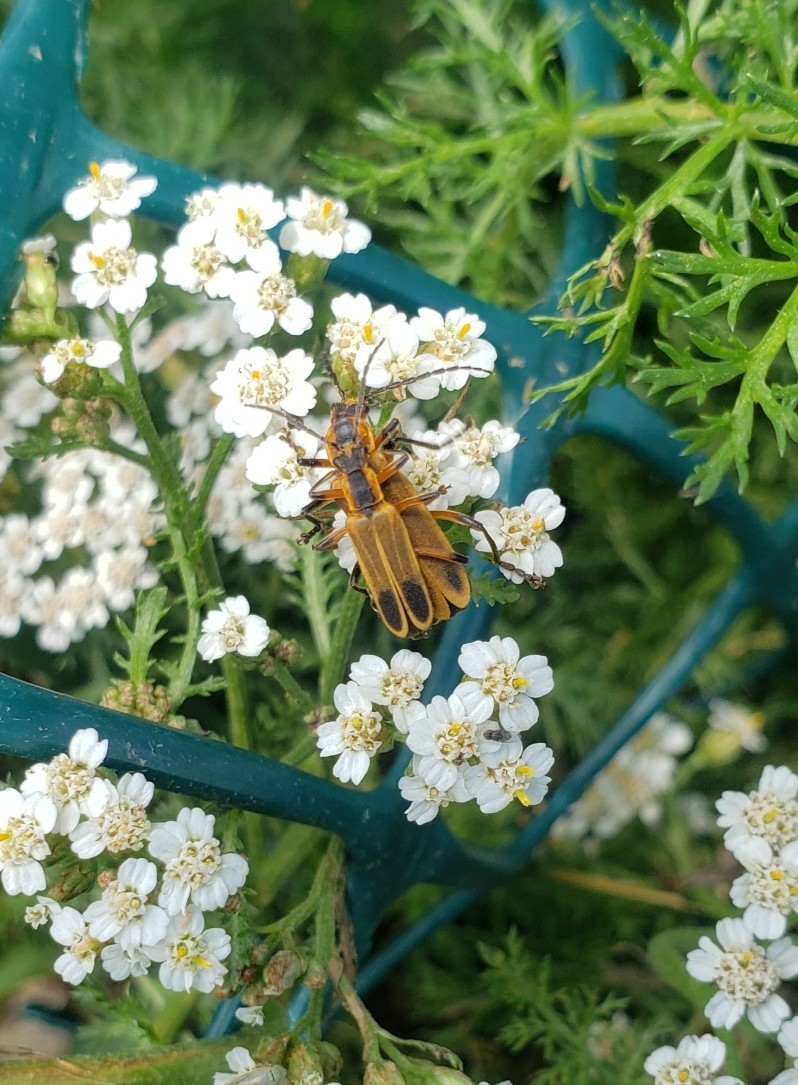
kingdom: Animalia
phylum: Arthropoda
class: Insecta
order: Coleoptera
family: Cantharidae
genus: Chauliognathus
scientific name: Chauliognathus marginatus
